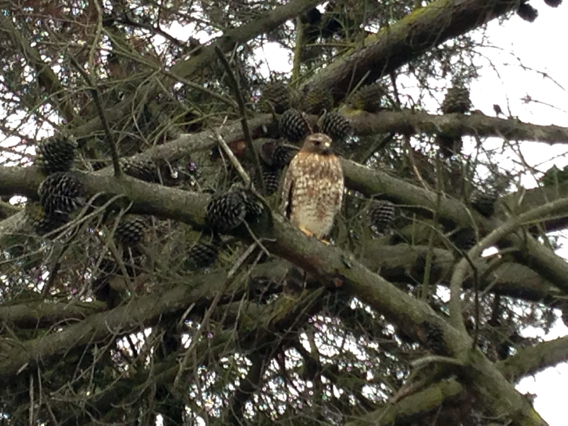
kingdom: Animalia
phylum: Chordata
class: Aves
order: Accipitriformes
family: Accipitridae
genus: Buteo
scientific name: Buteo lineatus
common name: Red-shouldered hawk
